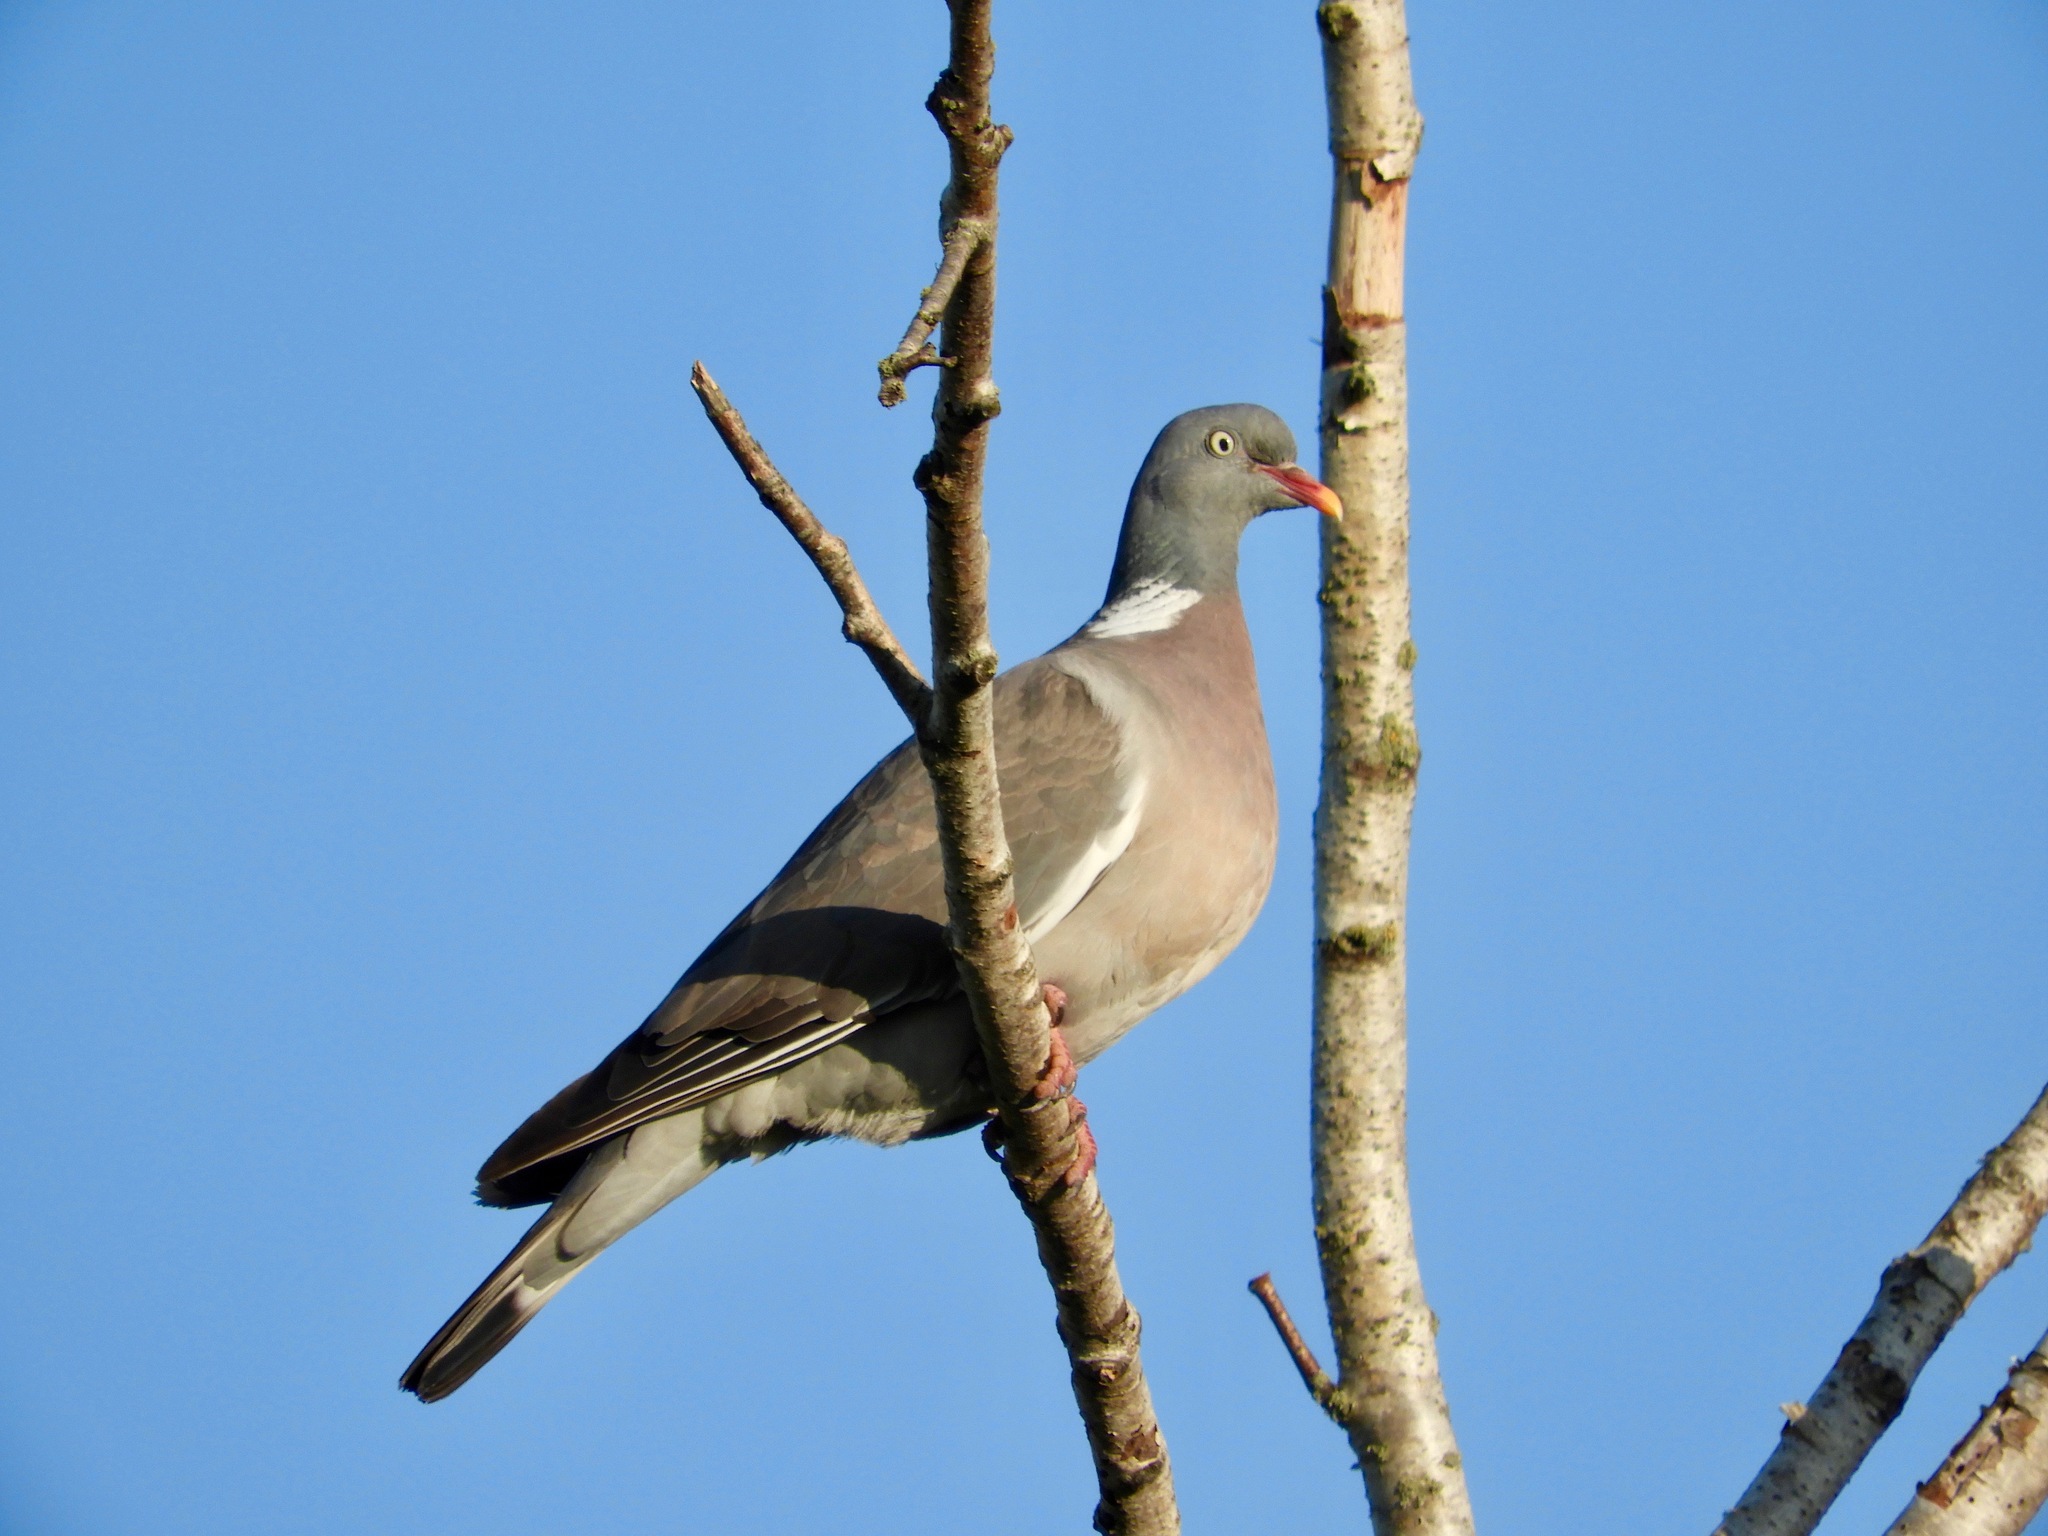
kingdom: Animalia
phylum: Chordata
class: Aves
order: Columbiformes
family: Columbidae
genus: Columba
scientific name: Columba palumbus
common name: Common wood pigeon
